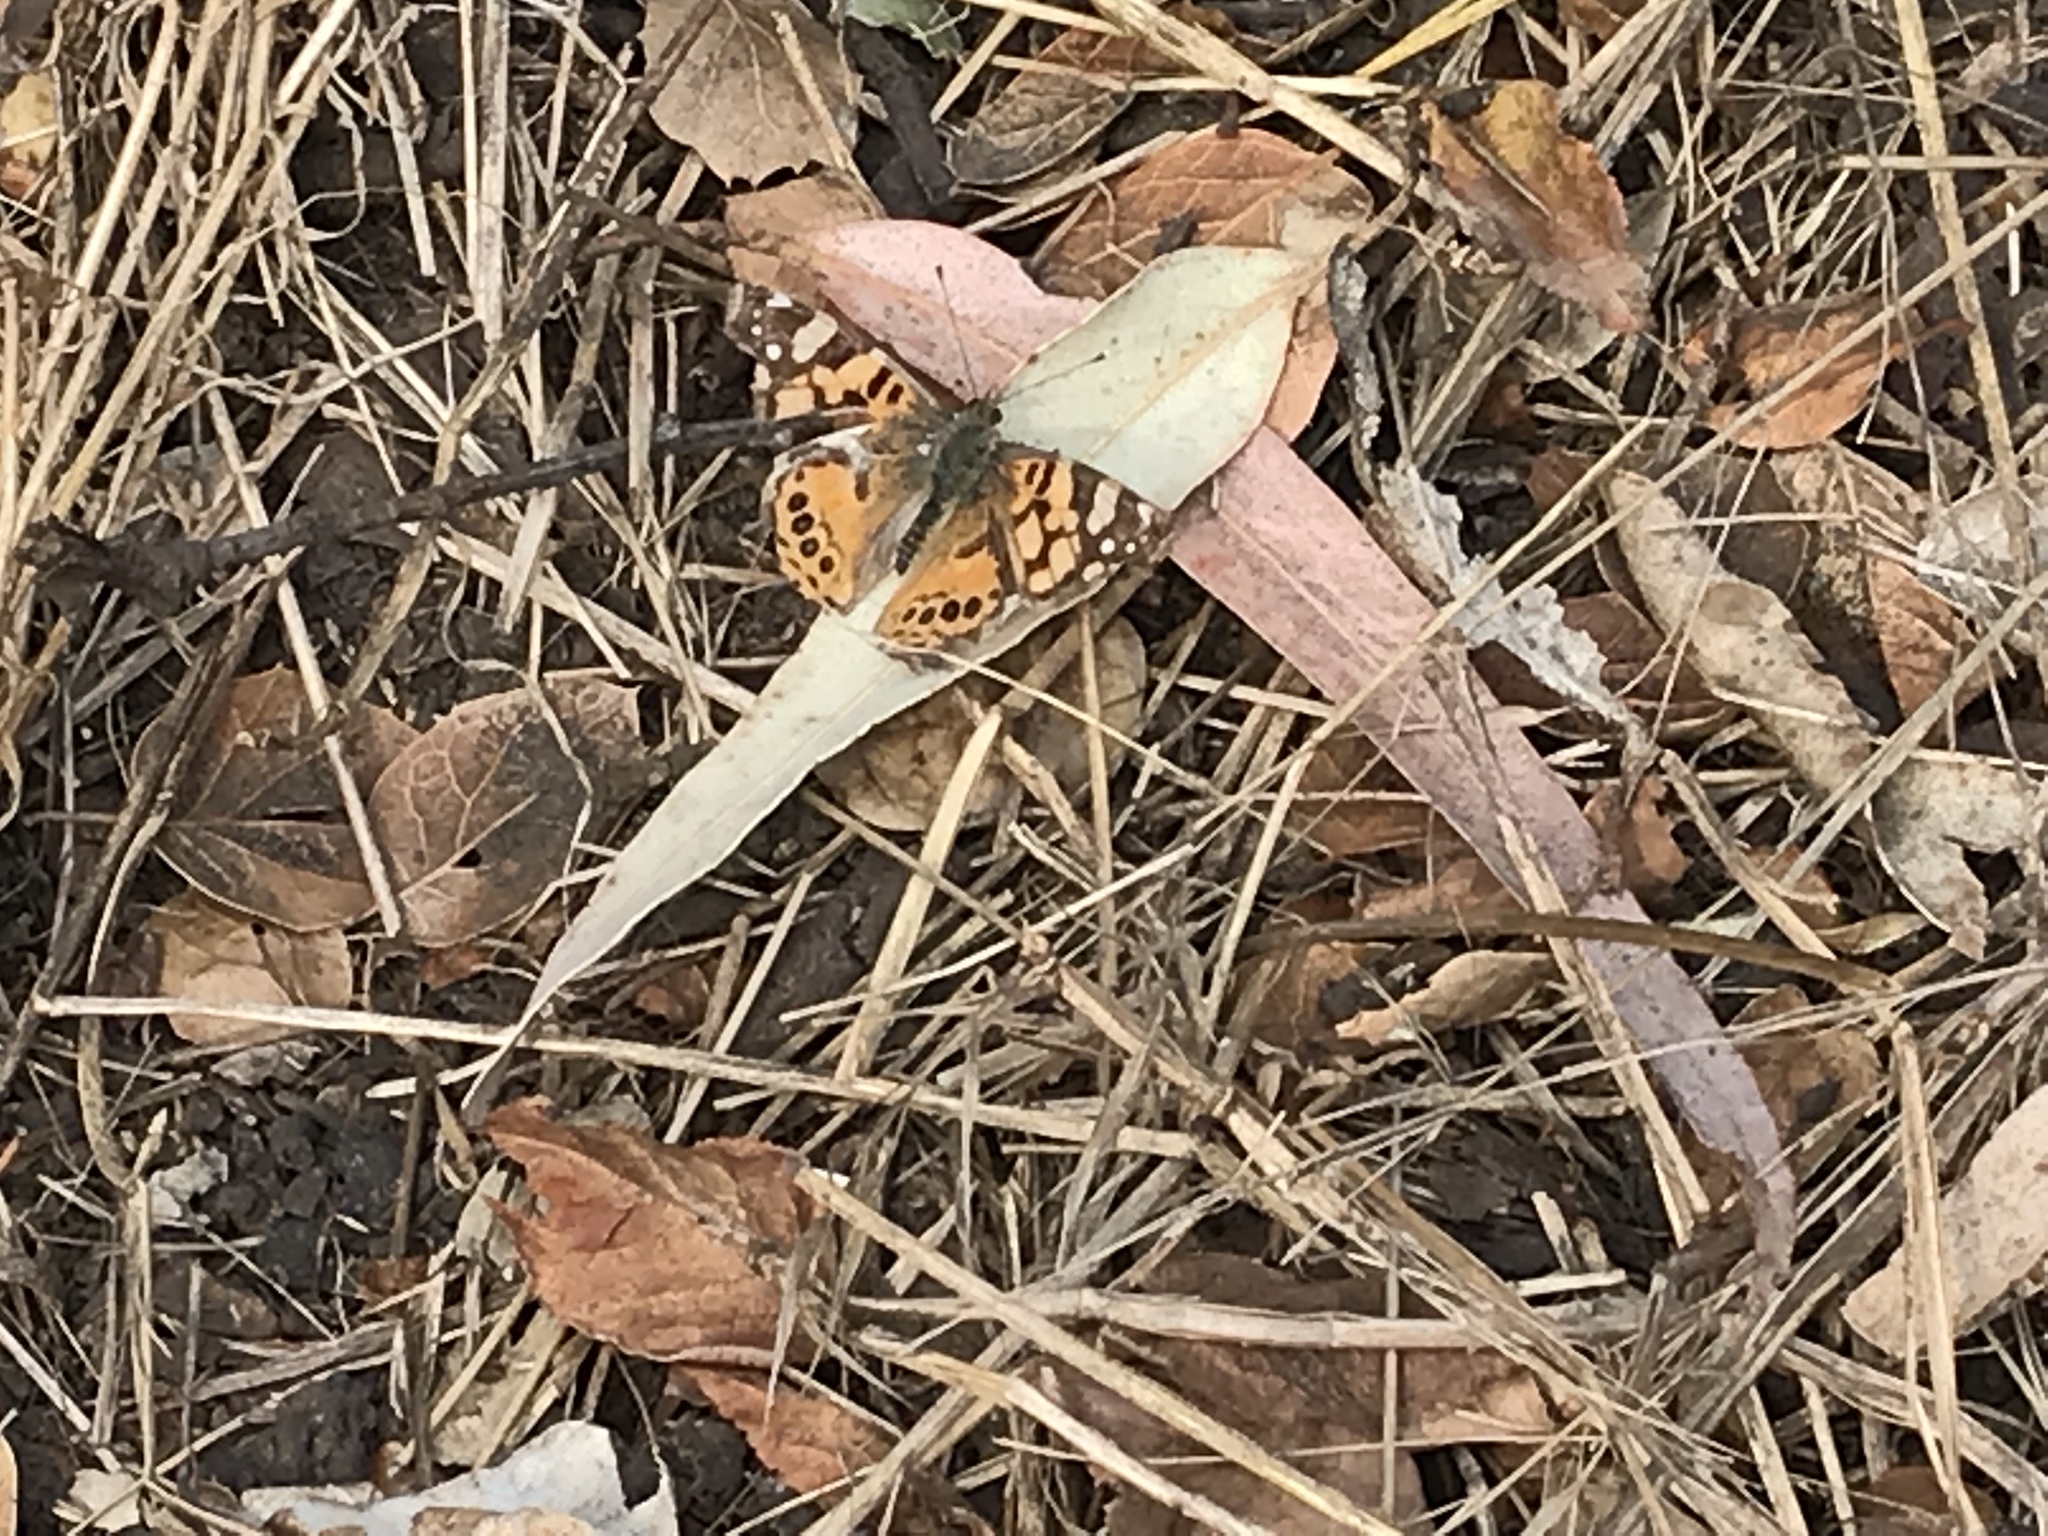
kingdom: Animalia
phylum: Arthropoda
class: Insecta
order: Lepidoptera
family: Nymphalidae
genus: Vanessa
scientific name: Vanessa annabella
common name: West coast lady
